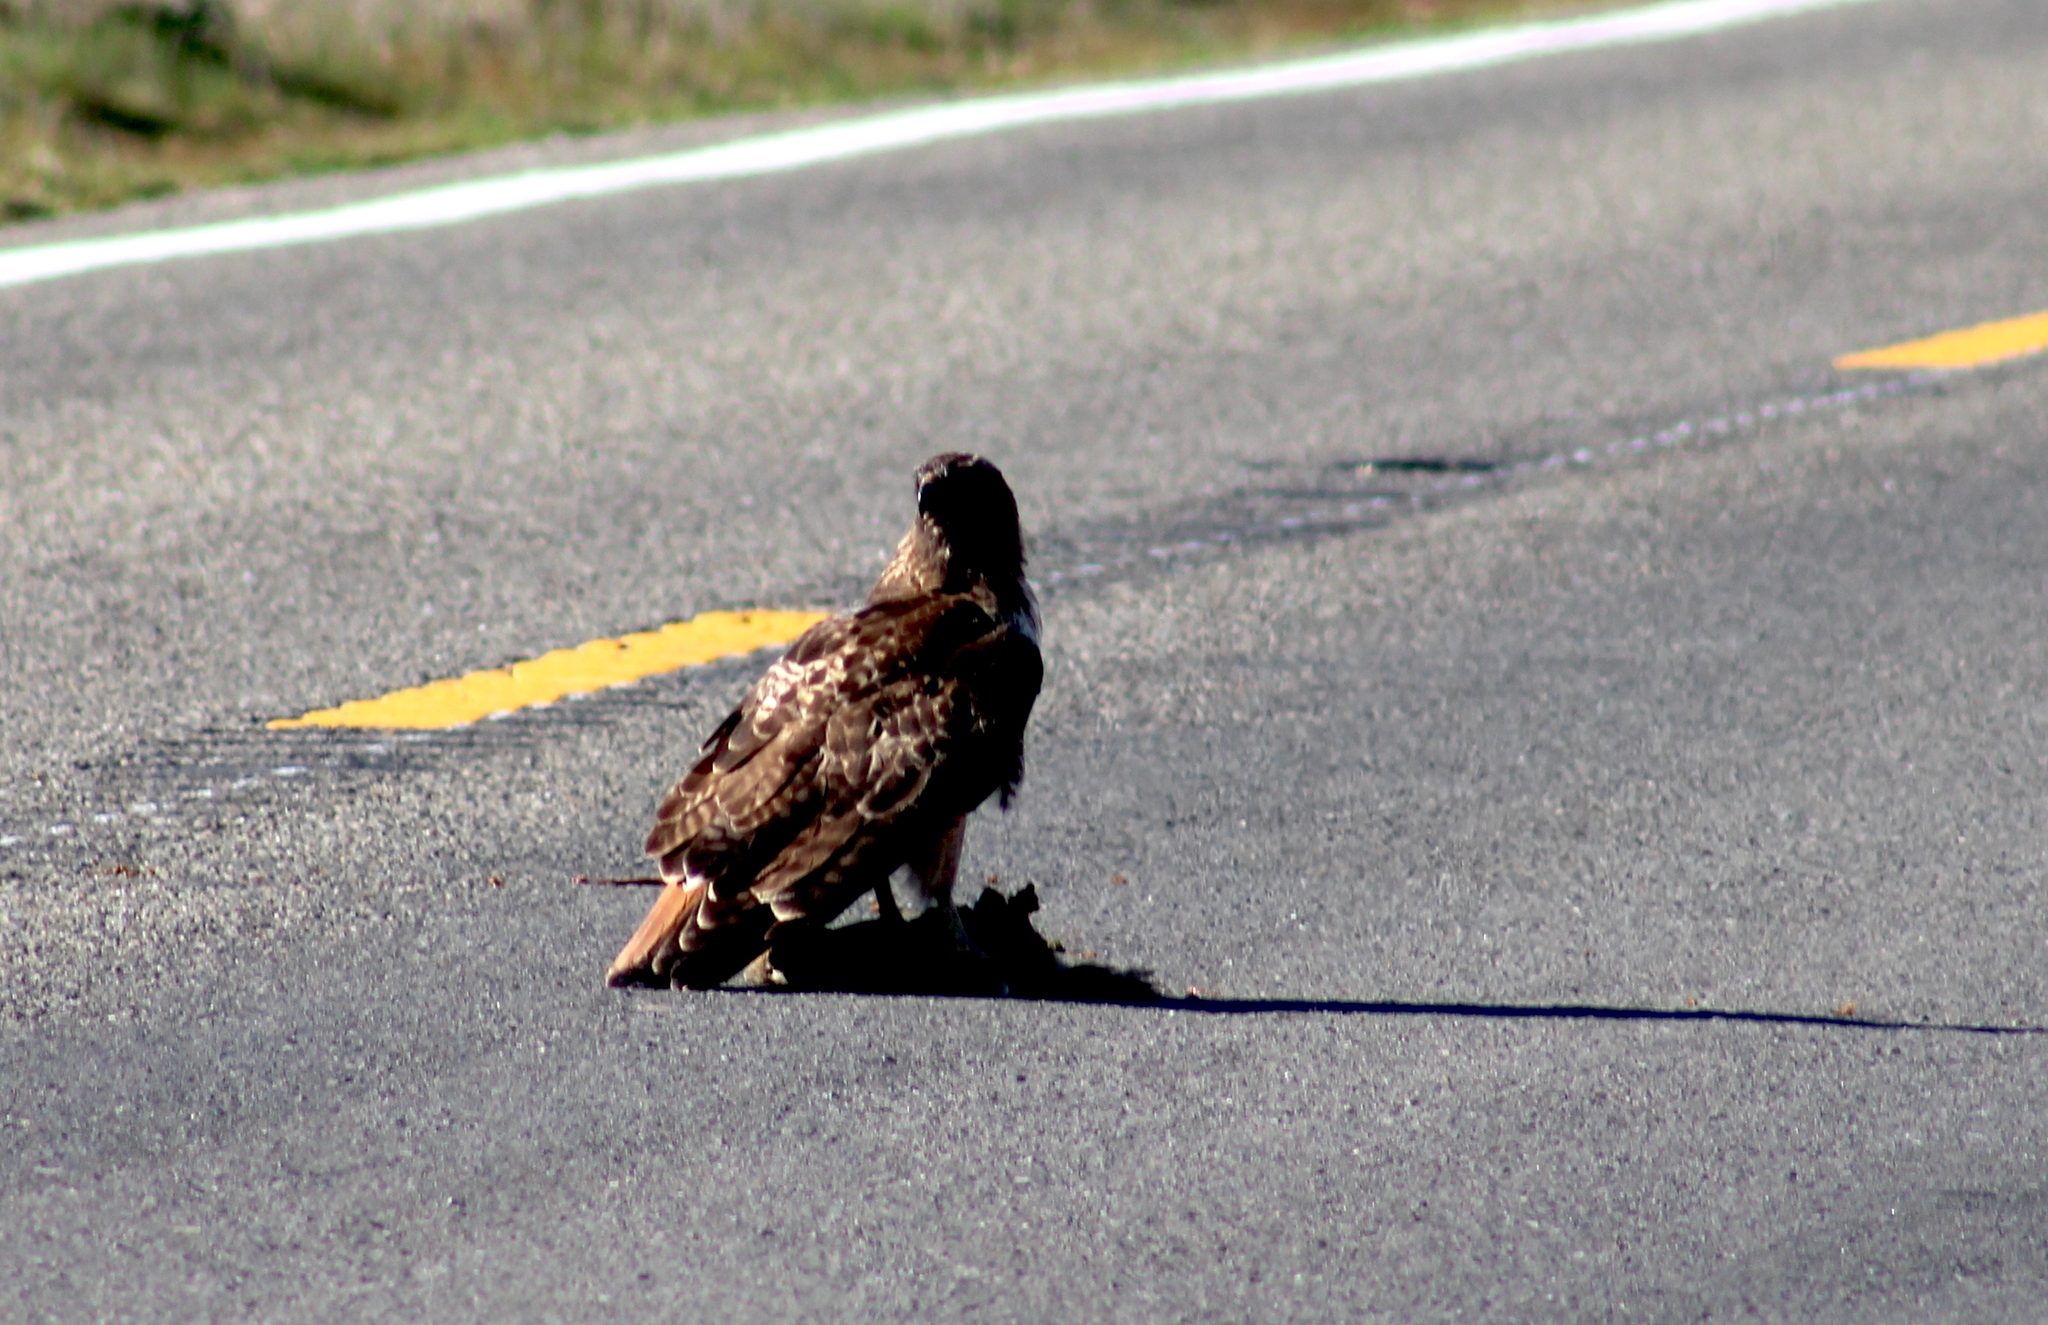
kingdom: Animalia
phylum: Chordata
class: Aves
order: Accipitriformes
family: Accipitridae
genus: Buteo
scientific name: Buteo jamaicensis
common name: Red-tailed hawk
